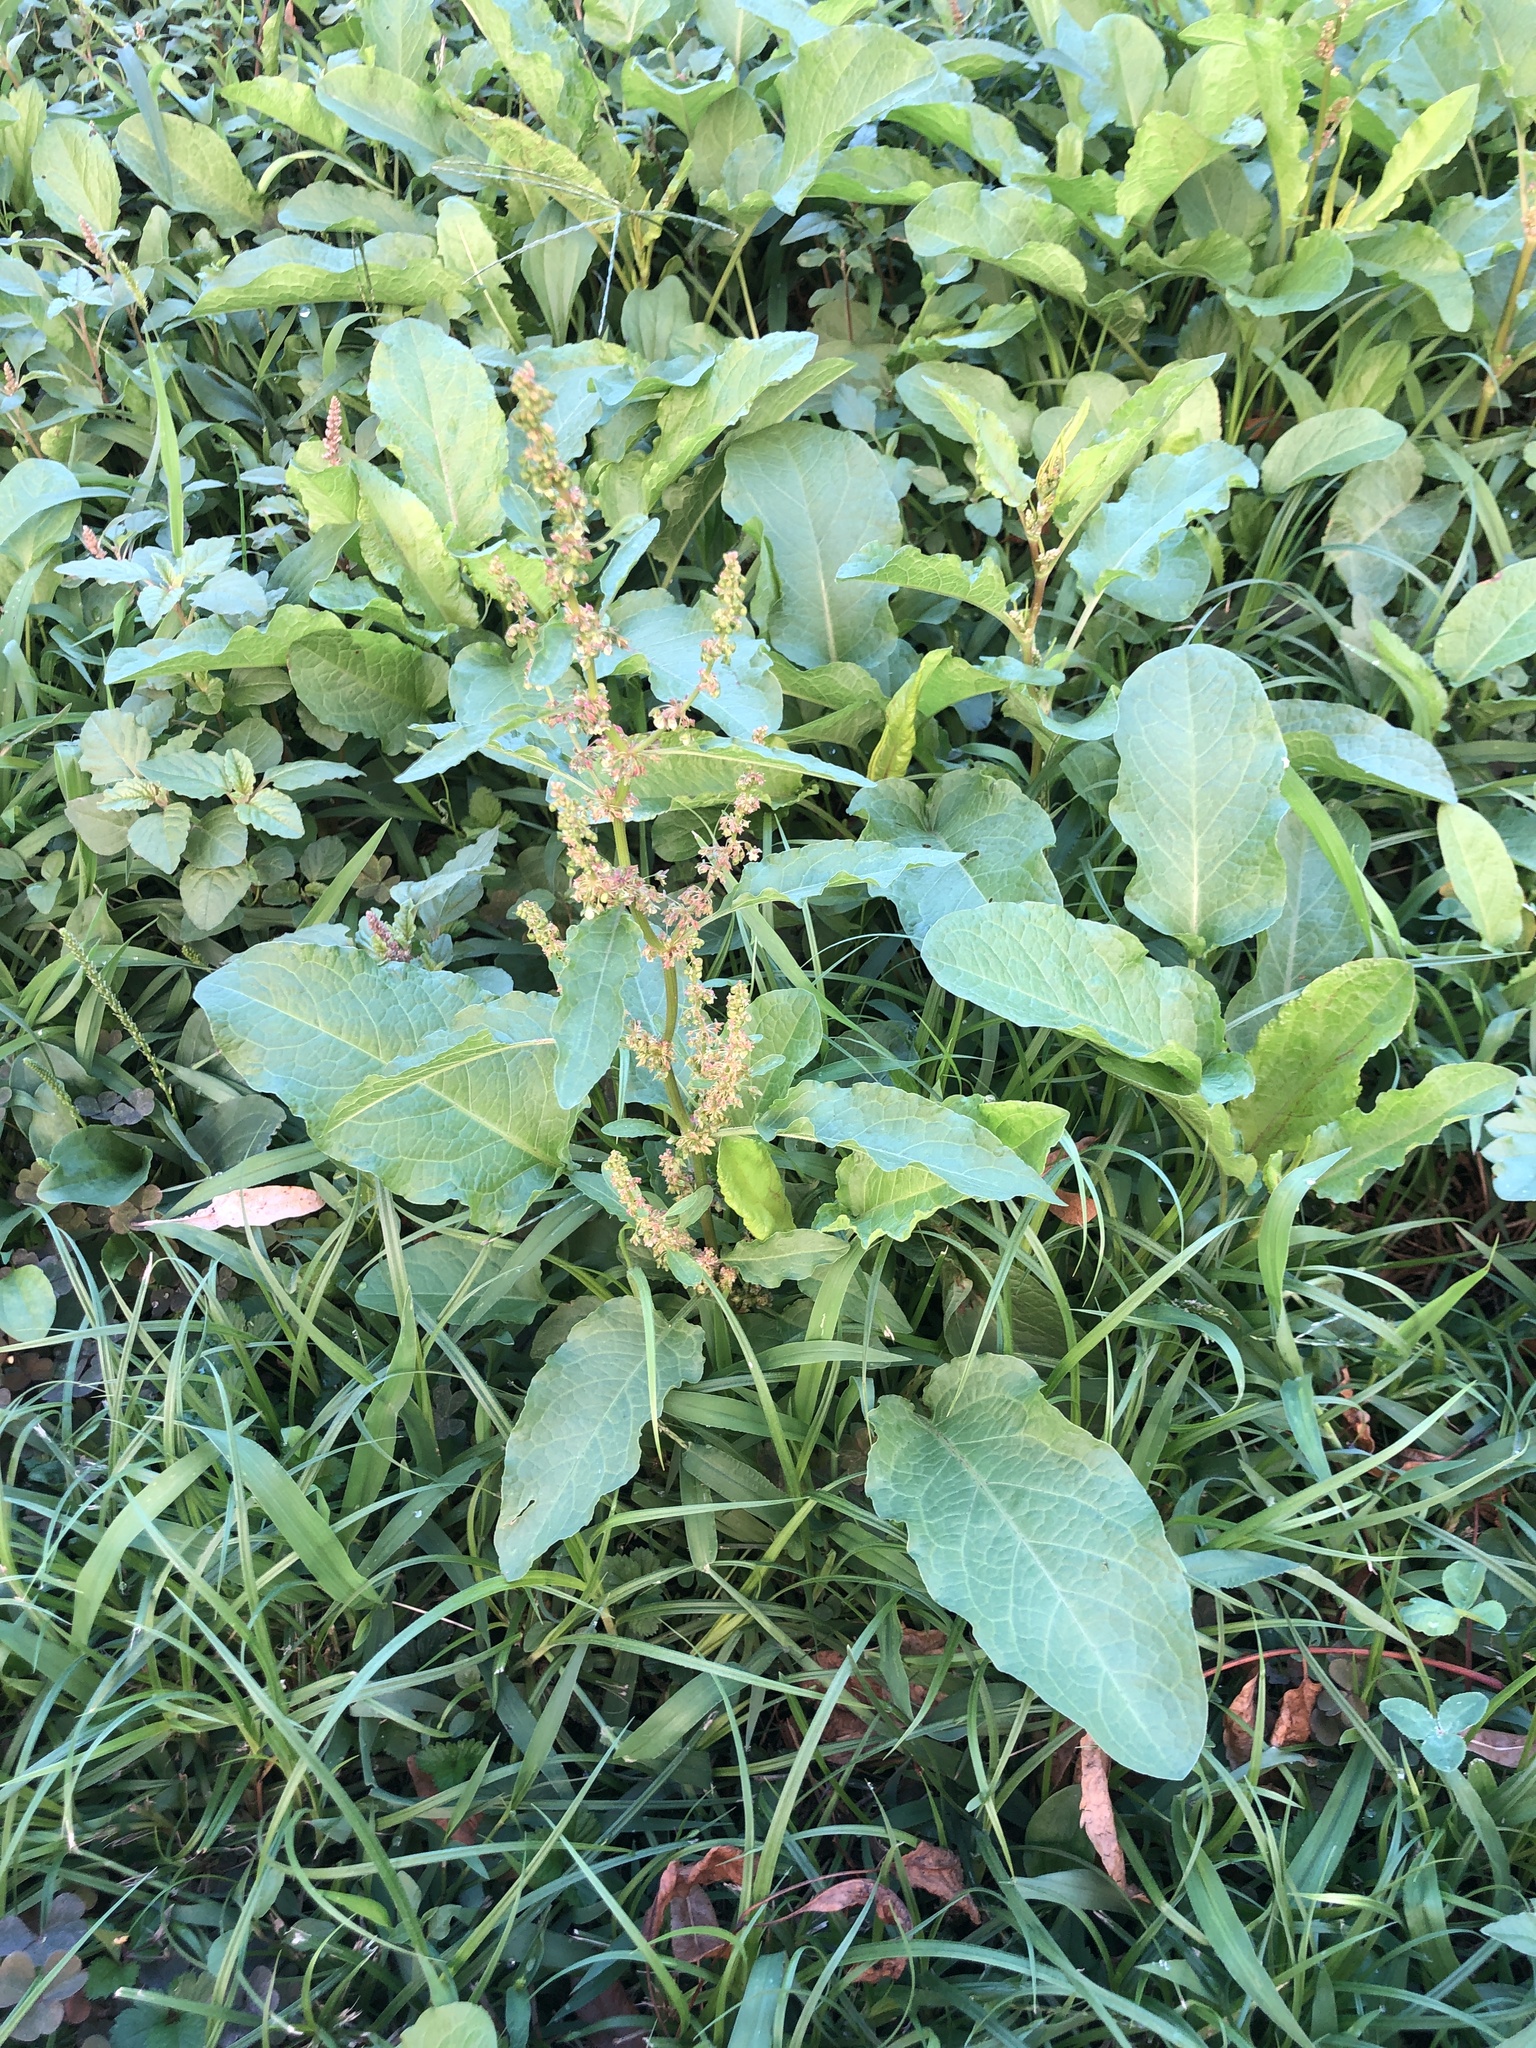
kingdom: Plantae
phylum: Tracheophyta
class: Magnoliopsida
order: Caryophyllales
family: Polygonaceae
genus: Rumex
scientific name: Rumex obtusifolius
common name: Bitter dock
